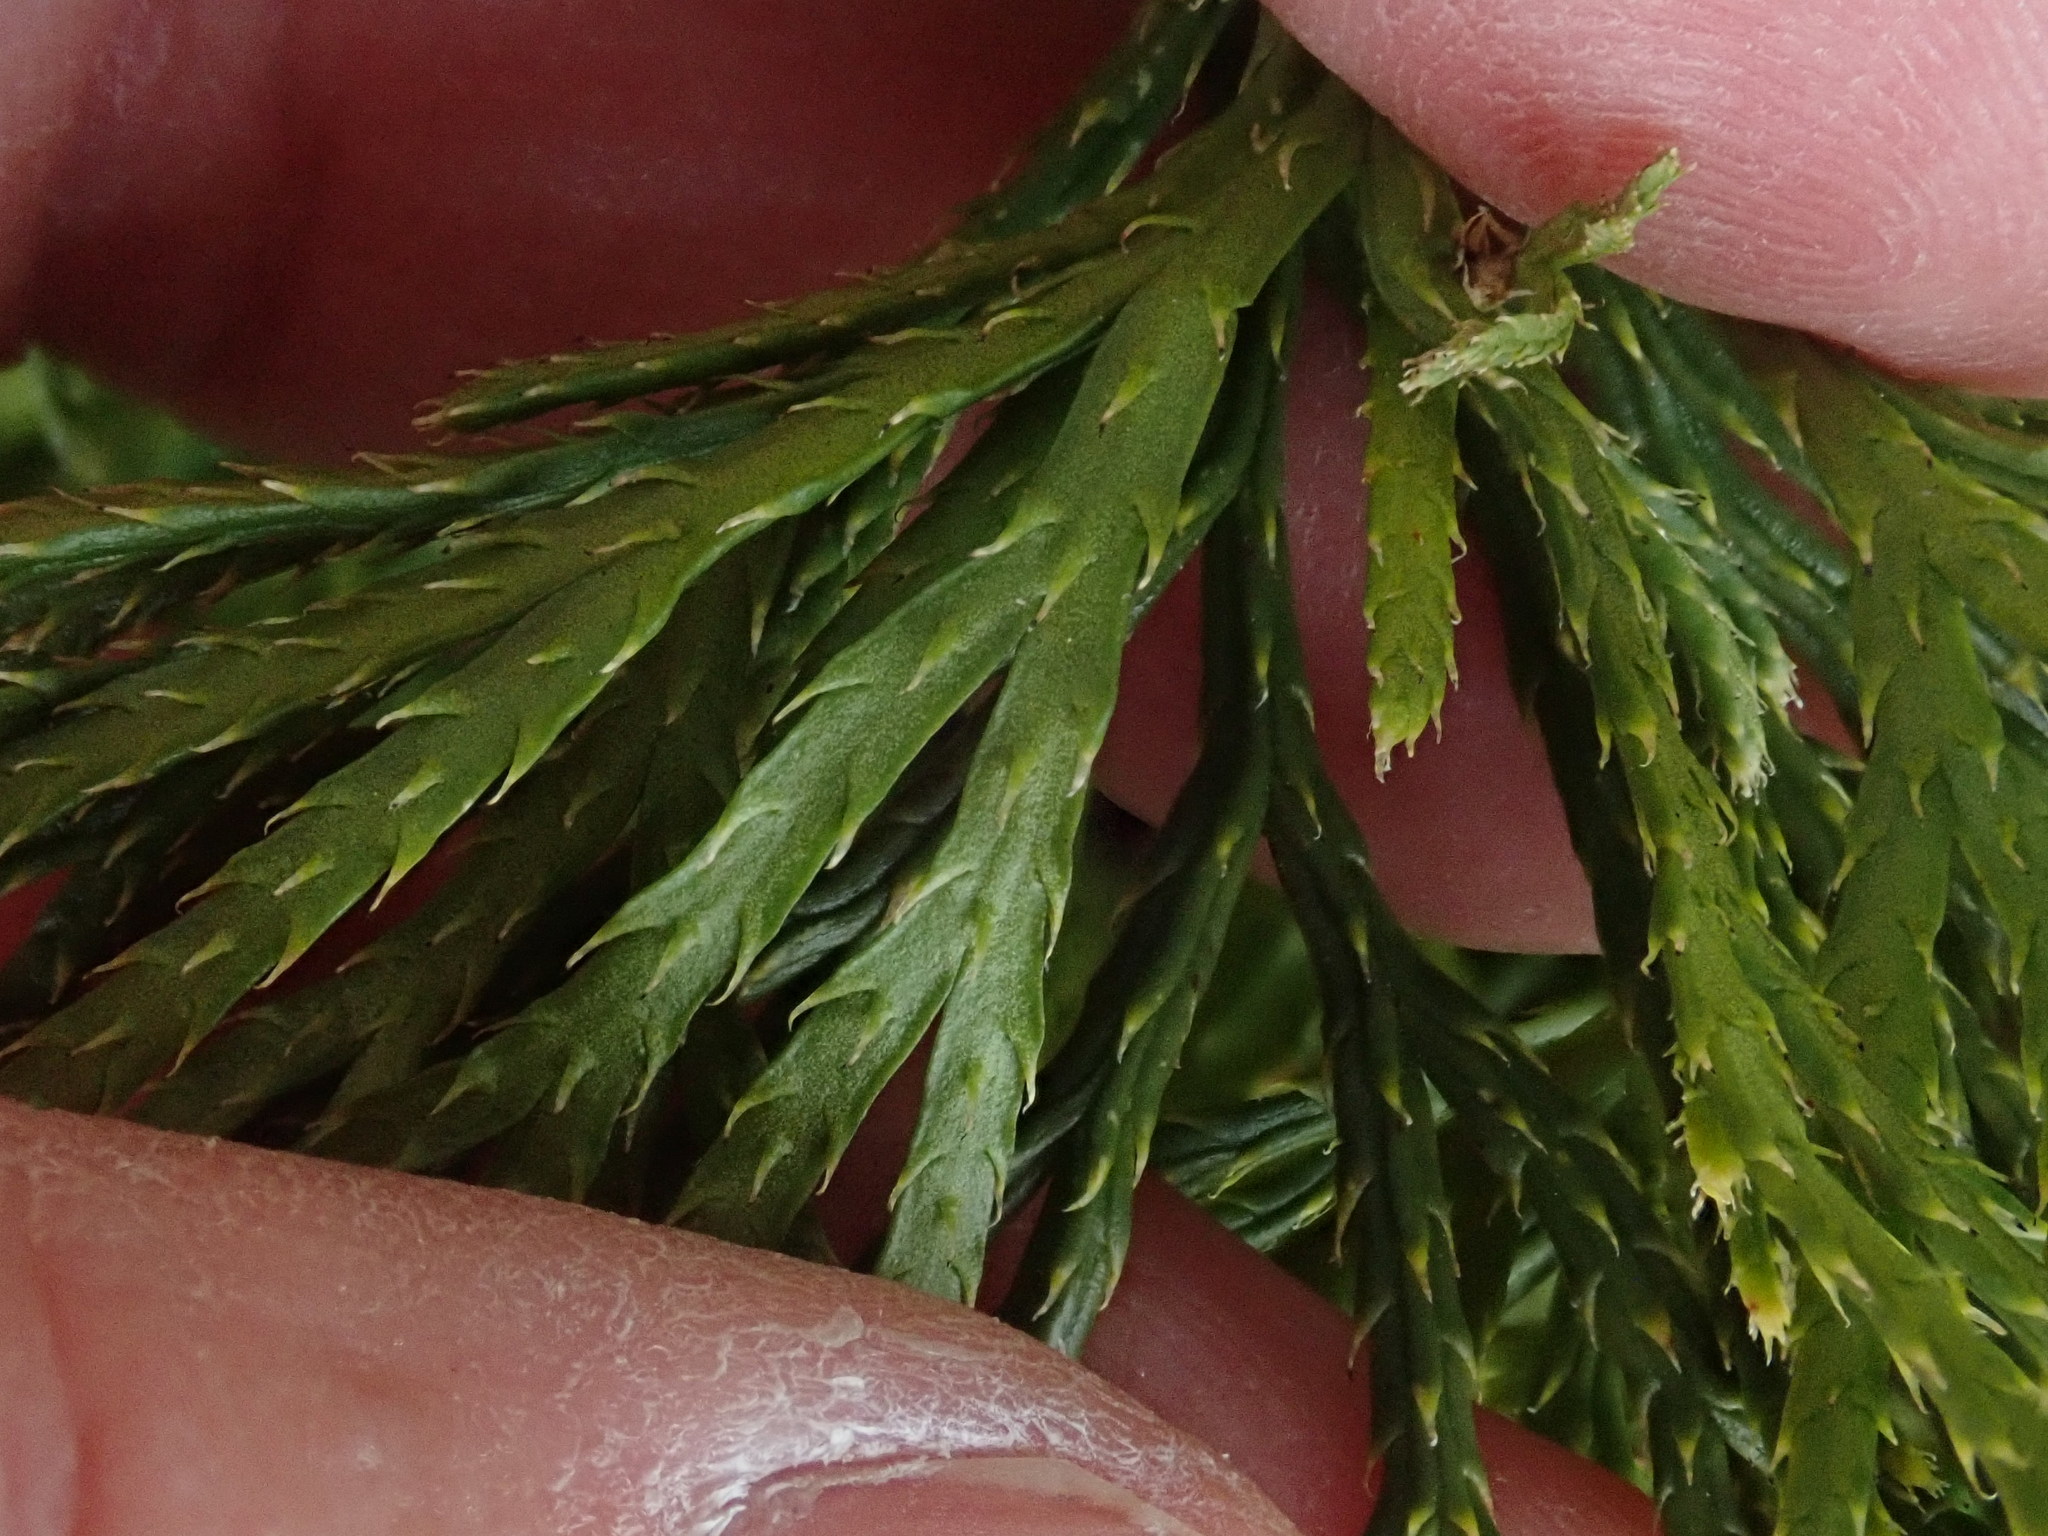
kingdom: Plantae
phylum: Tracheophyta
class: Lycopodiopsida
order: Lycopodiales
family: Lycopodiaceae
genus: Diphasiastrum
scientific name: Diphasiastrum tristachyum
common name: Blue ground-cedar
